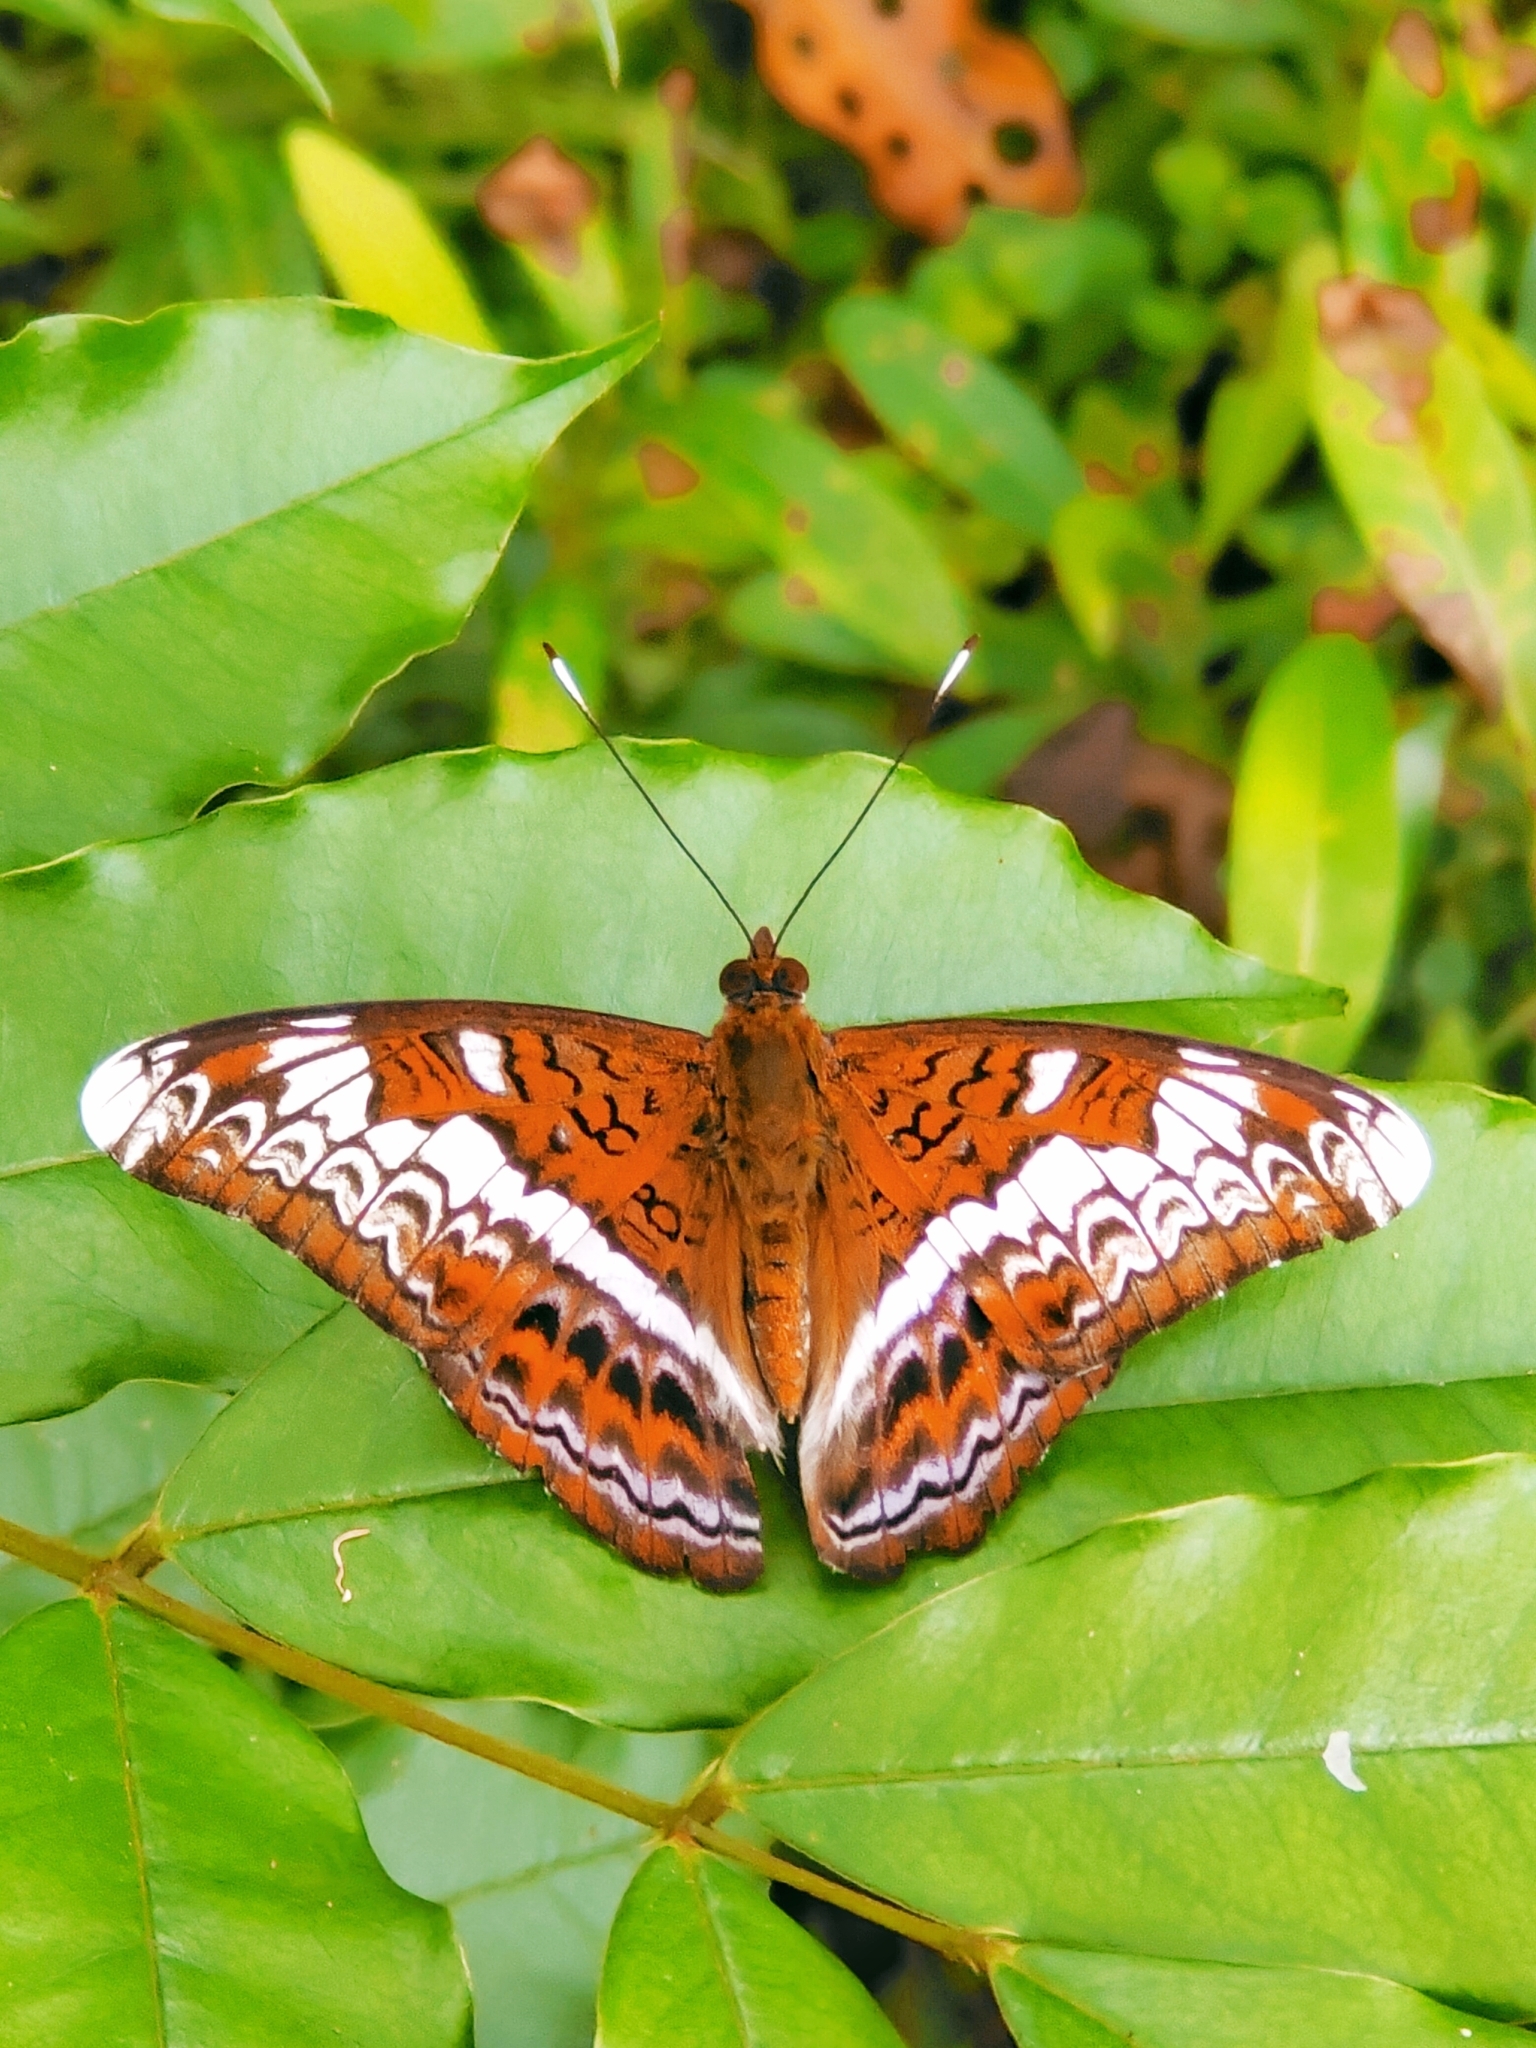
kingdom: Animalia
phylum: Arthropoda
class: Insecta
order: Lepidoptera
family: Nymphalidae
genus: Lebadea
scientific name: Lebadea martha
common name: Knight
